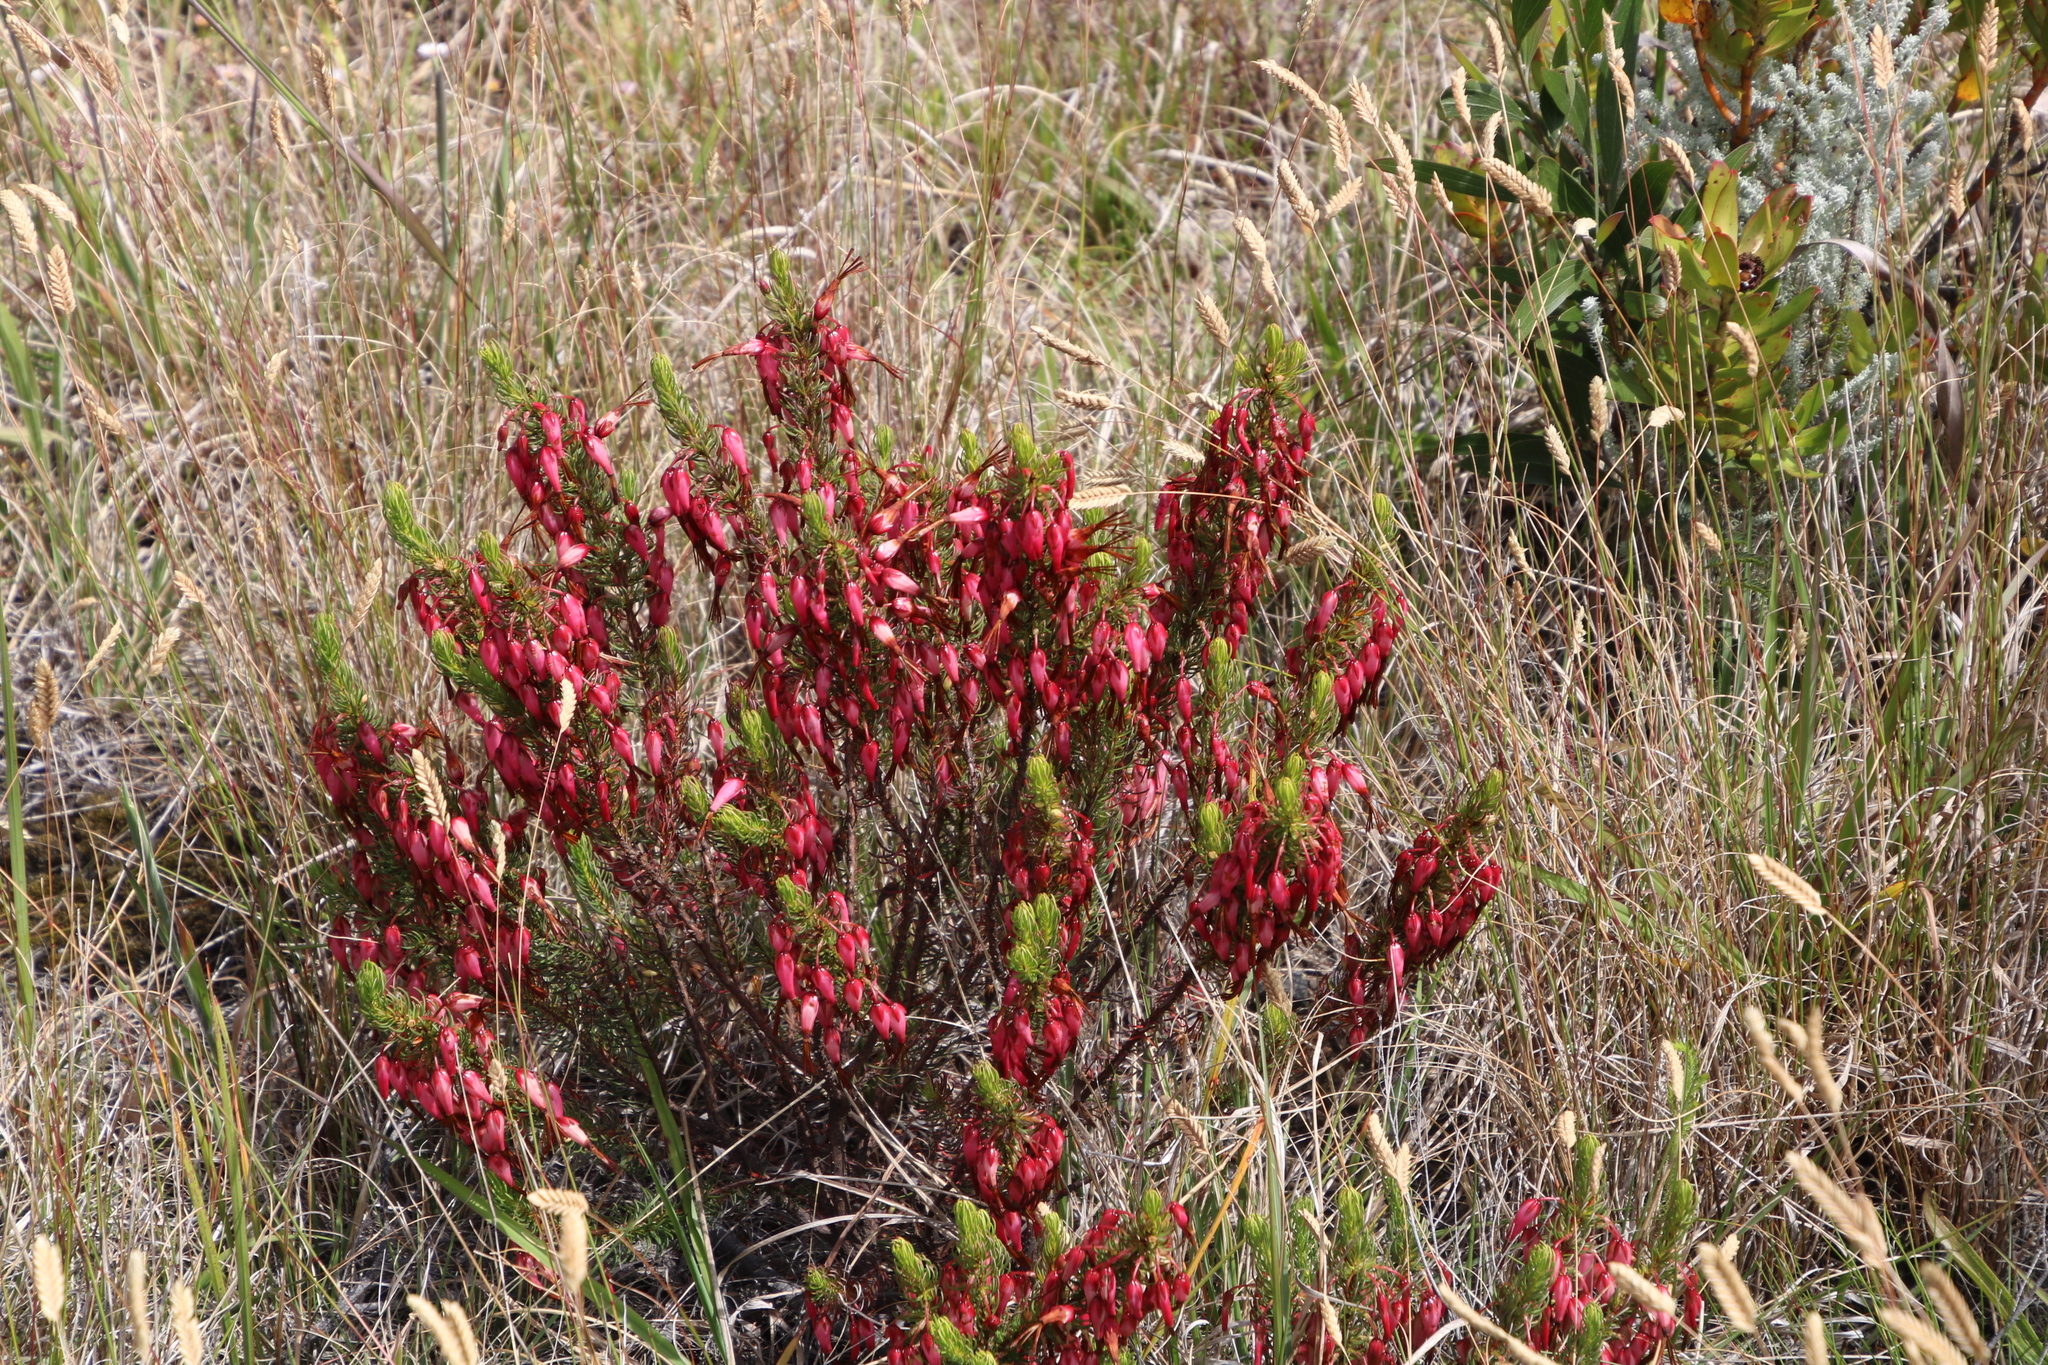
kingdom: Plantae
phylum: Tracheophyta
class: Magnoliopsida
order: Ericales
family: Ericaceae
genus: Erica
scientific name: Erica plukenetii
